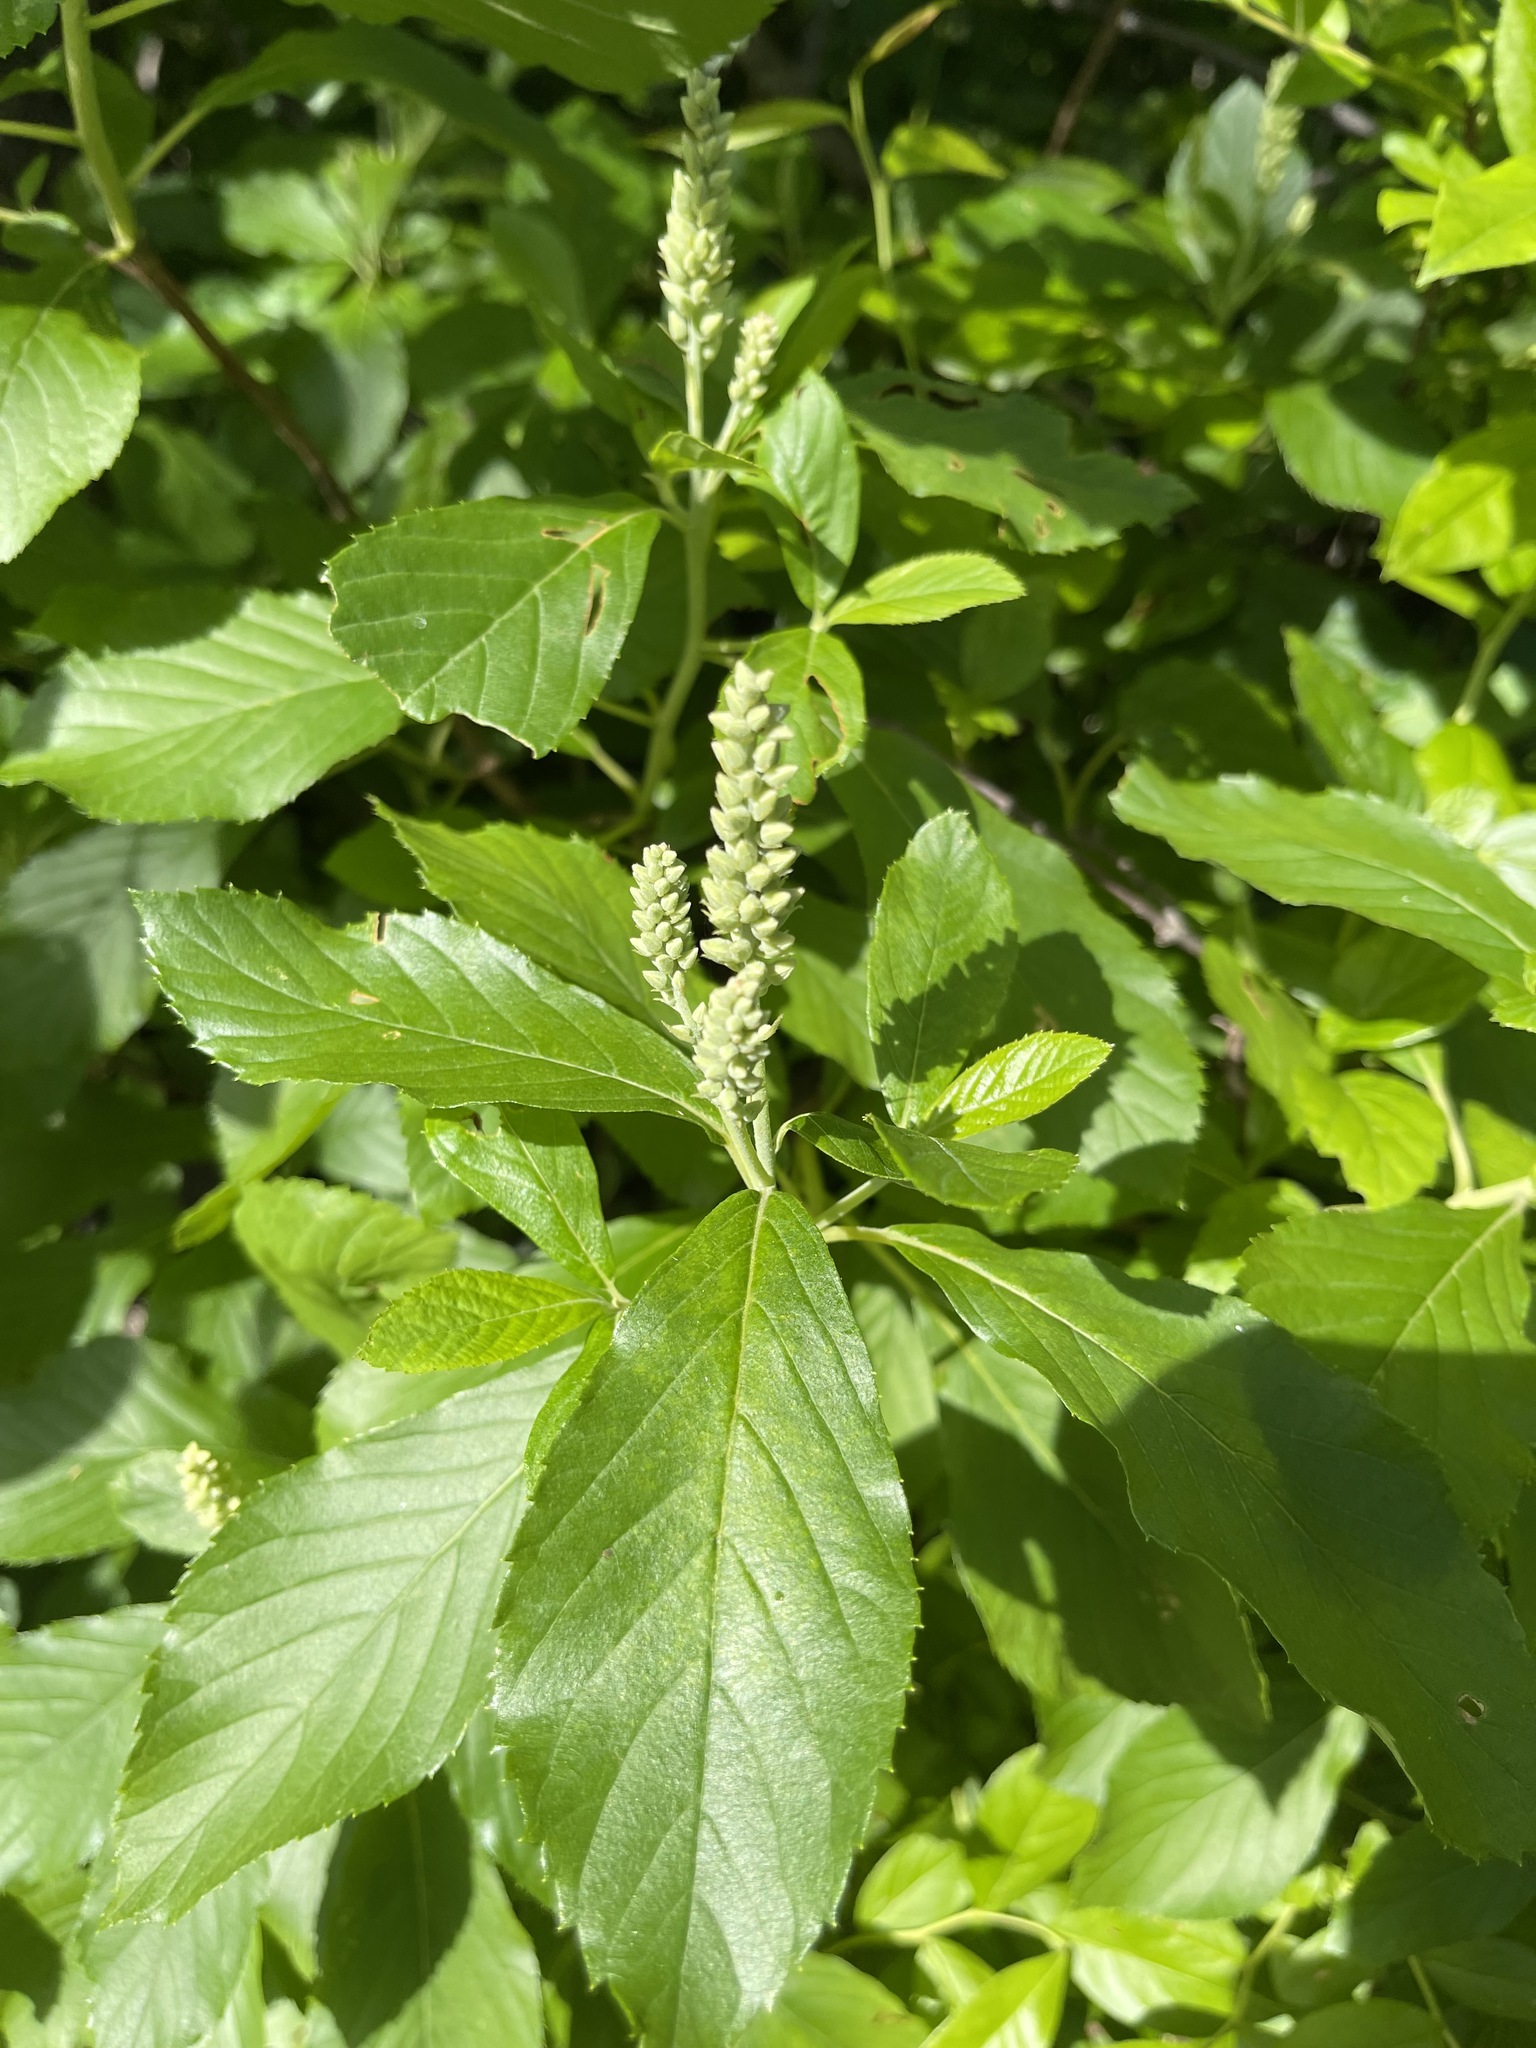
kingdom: Plantae
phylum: Tracheophyta
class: Magnoliopsida
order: Ericales
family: Clethraceae
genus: Clethra
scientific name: Clethra alnifolia
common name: Sweet pepperbush
